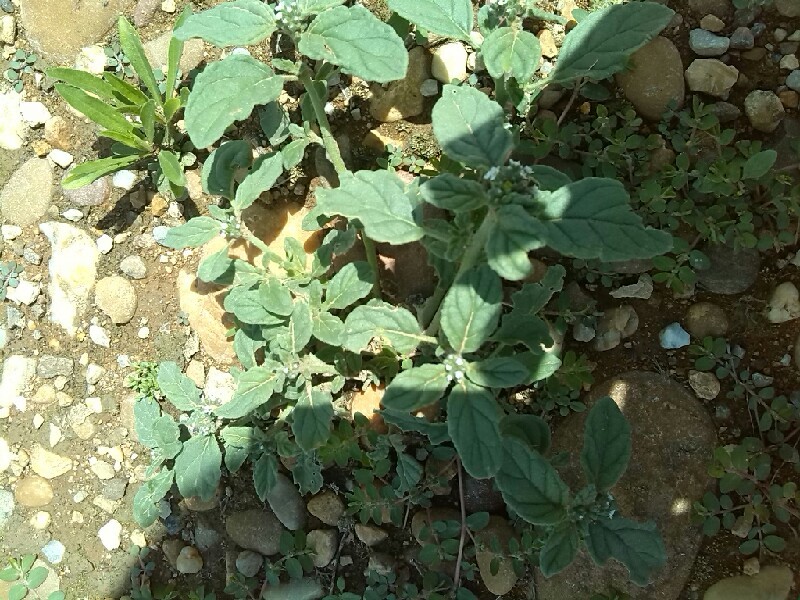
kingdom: Plantae
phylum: Tracheophyta
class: Magnoliopsida
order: Boraginales
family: Heliotropiaceae
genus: Heliotropium
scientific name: Heliotropium europaeum
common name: European heliotrope
